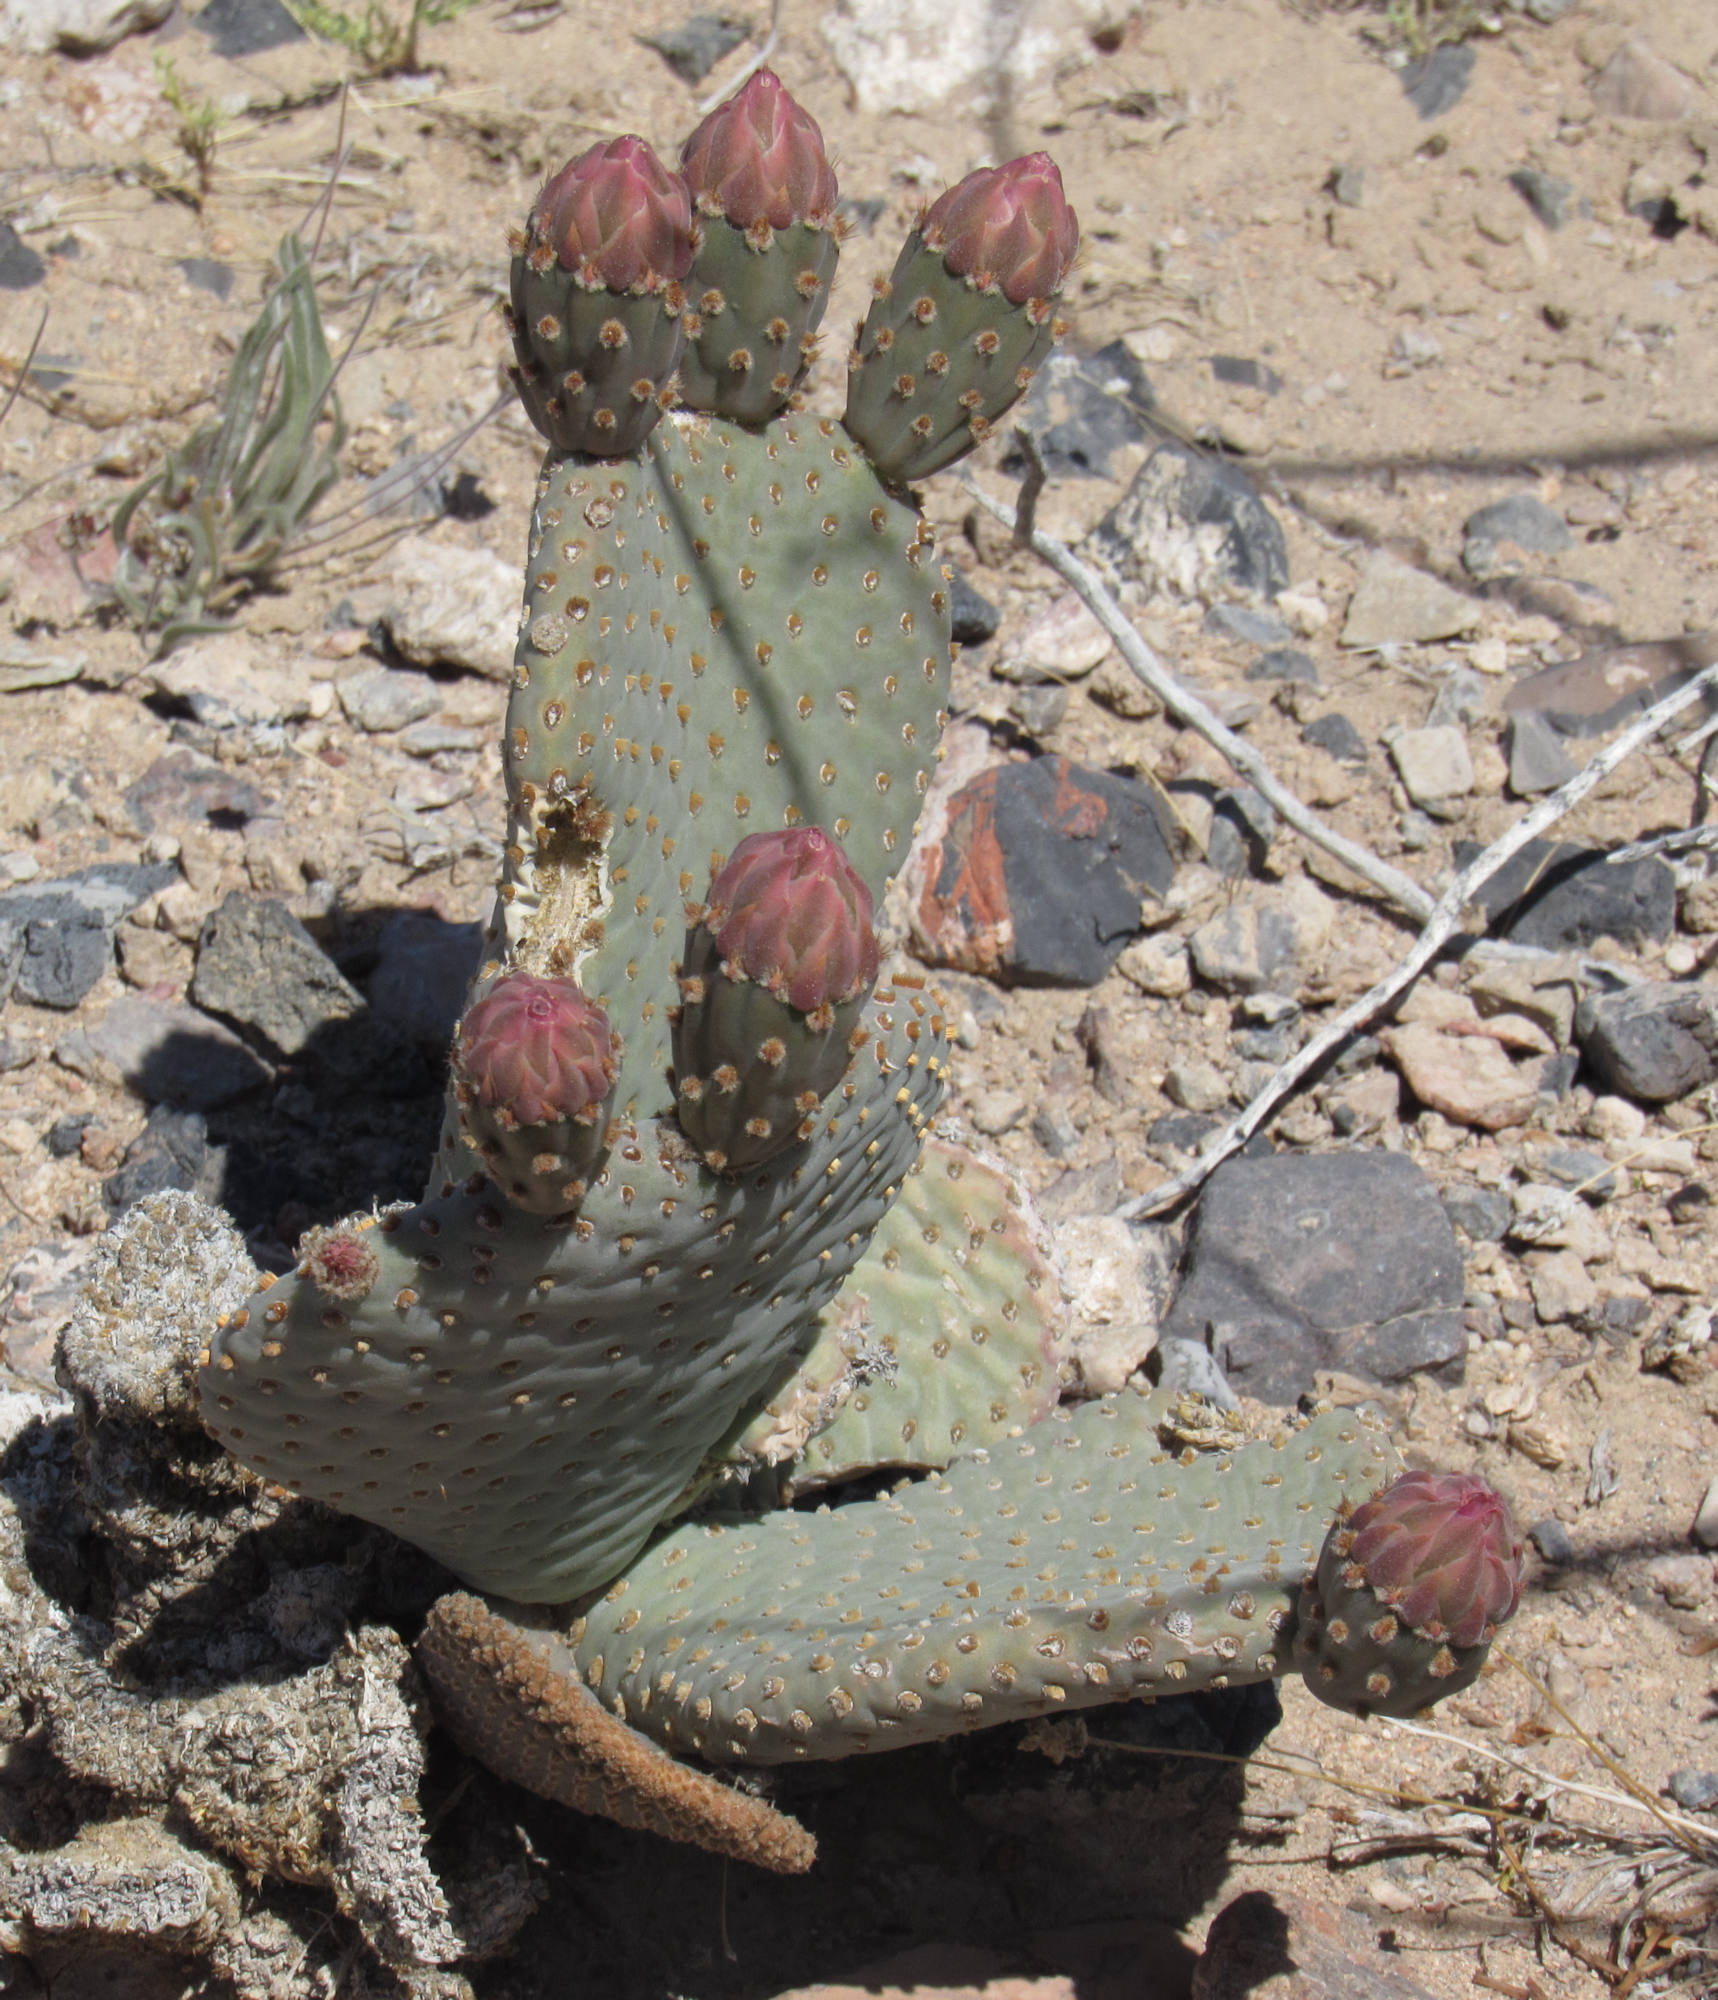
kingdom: Plantae
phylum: Tracheophyta
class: Magnoliopsida
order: Caryophyllales
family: Cactaceae
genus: Opuntia
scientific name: Opuntia basilaris
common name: Beavertail prickly-pear
